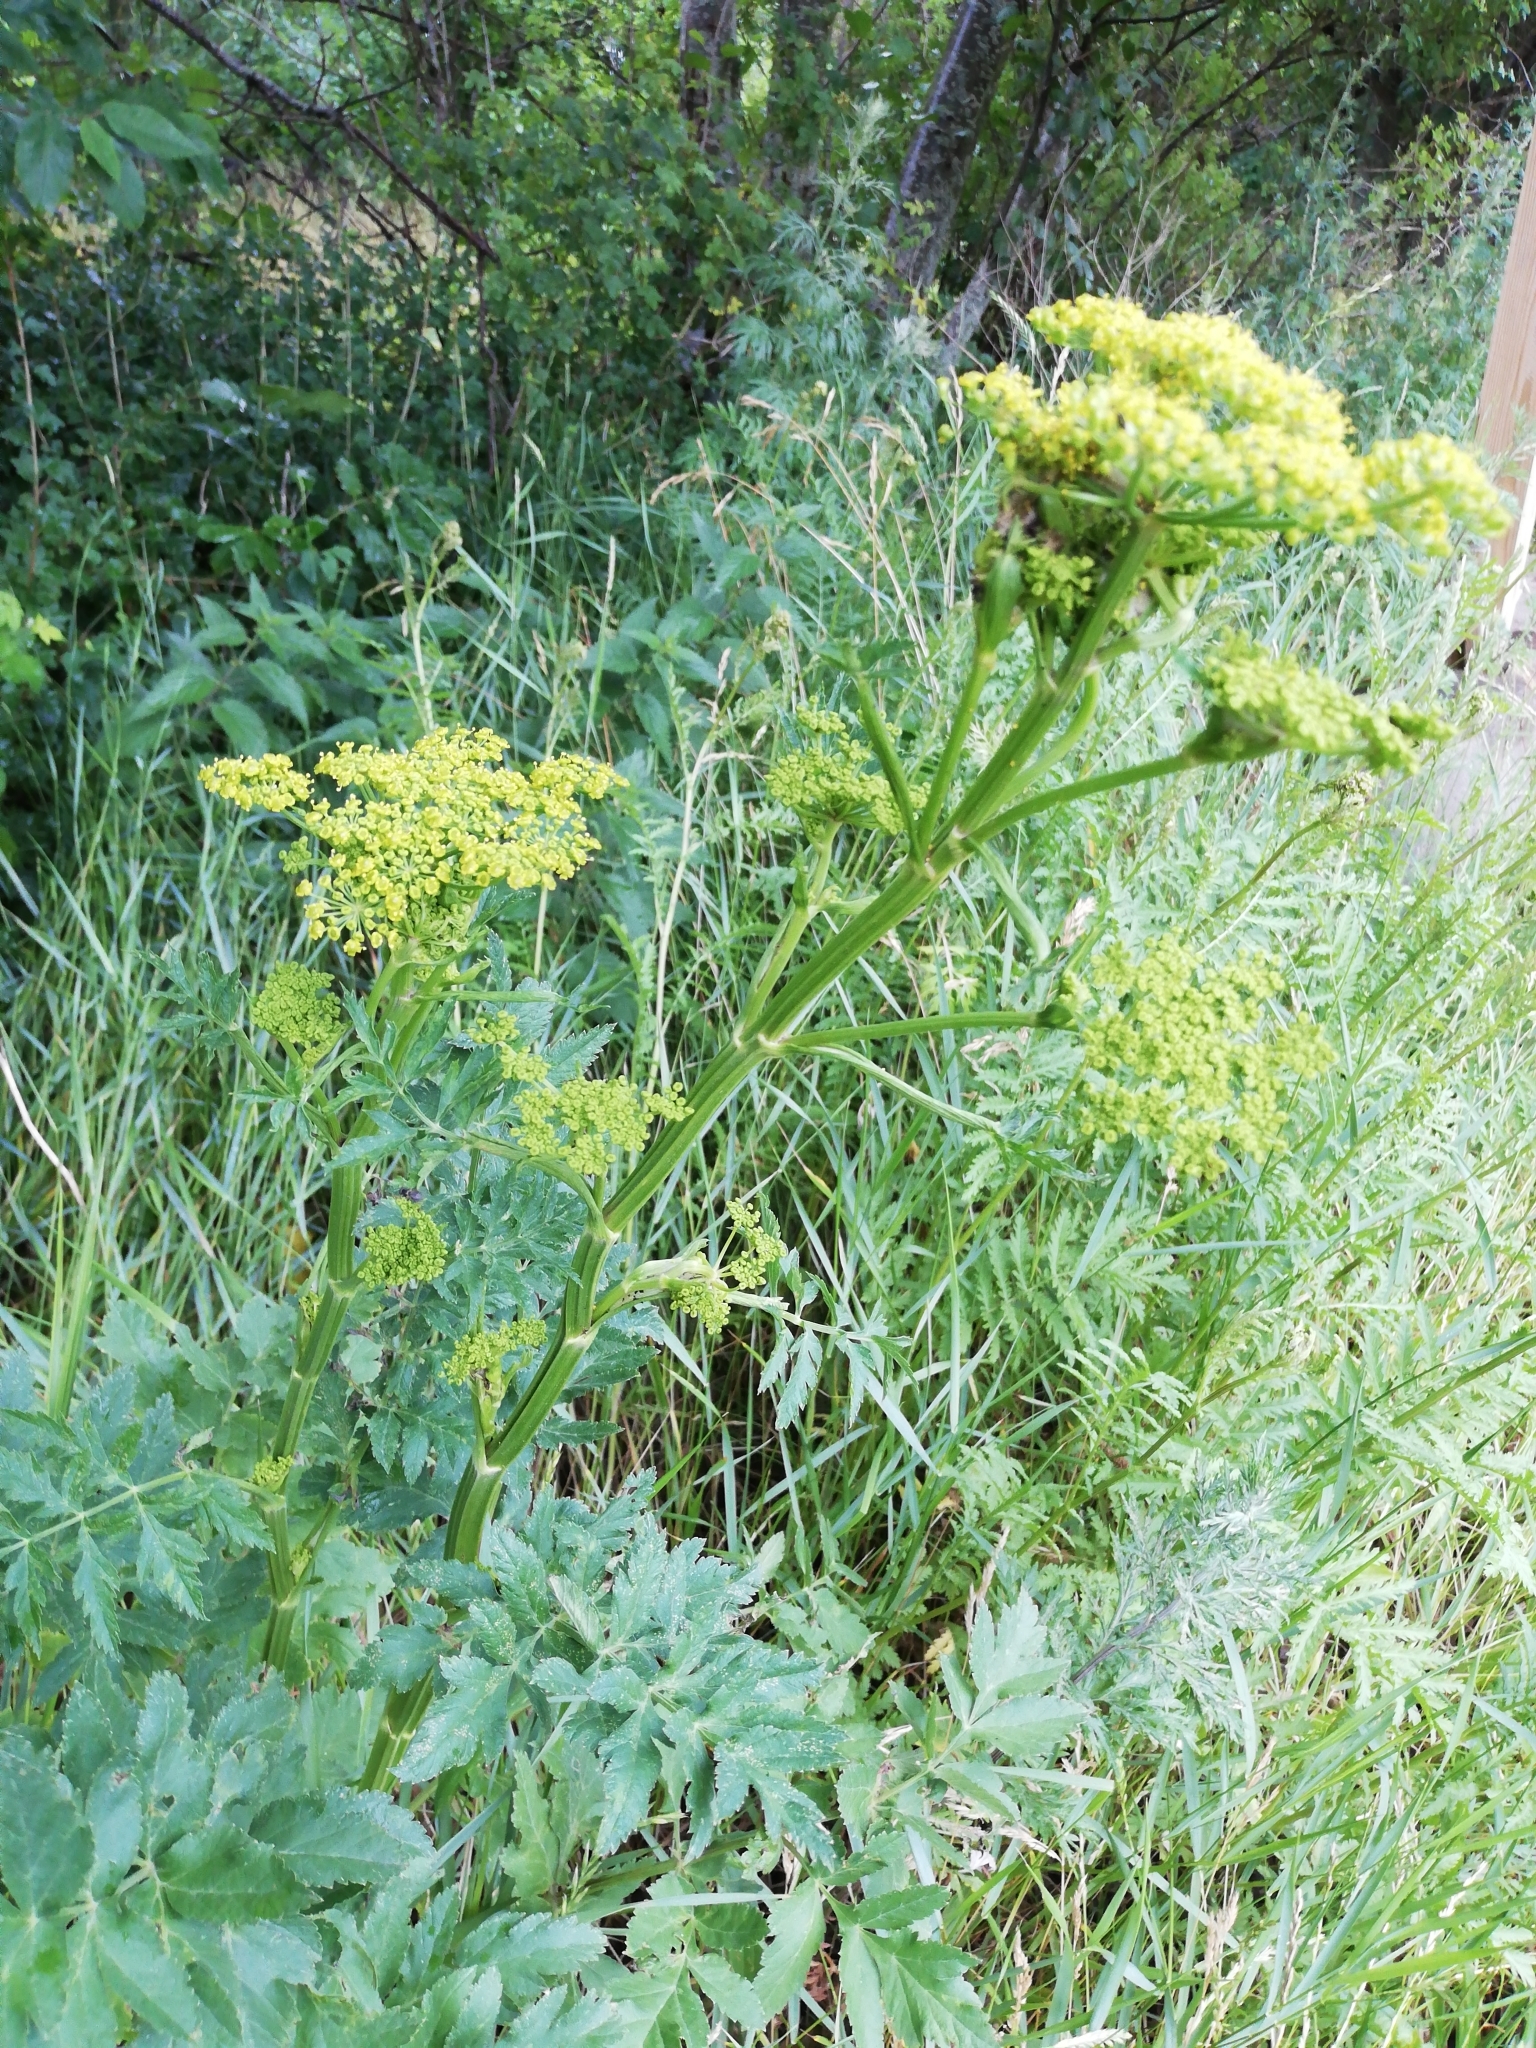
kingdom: Plantae
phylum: Tracheophyta
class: Magnoliopsida
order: Apiales
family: Apiaceae
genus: Pastinaca
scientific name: Pastinaca sativa
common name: Wild parsnip
